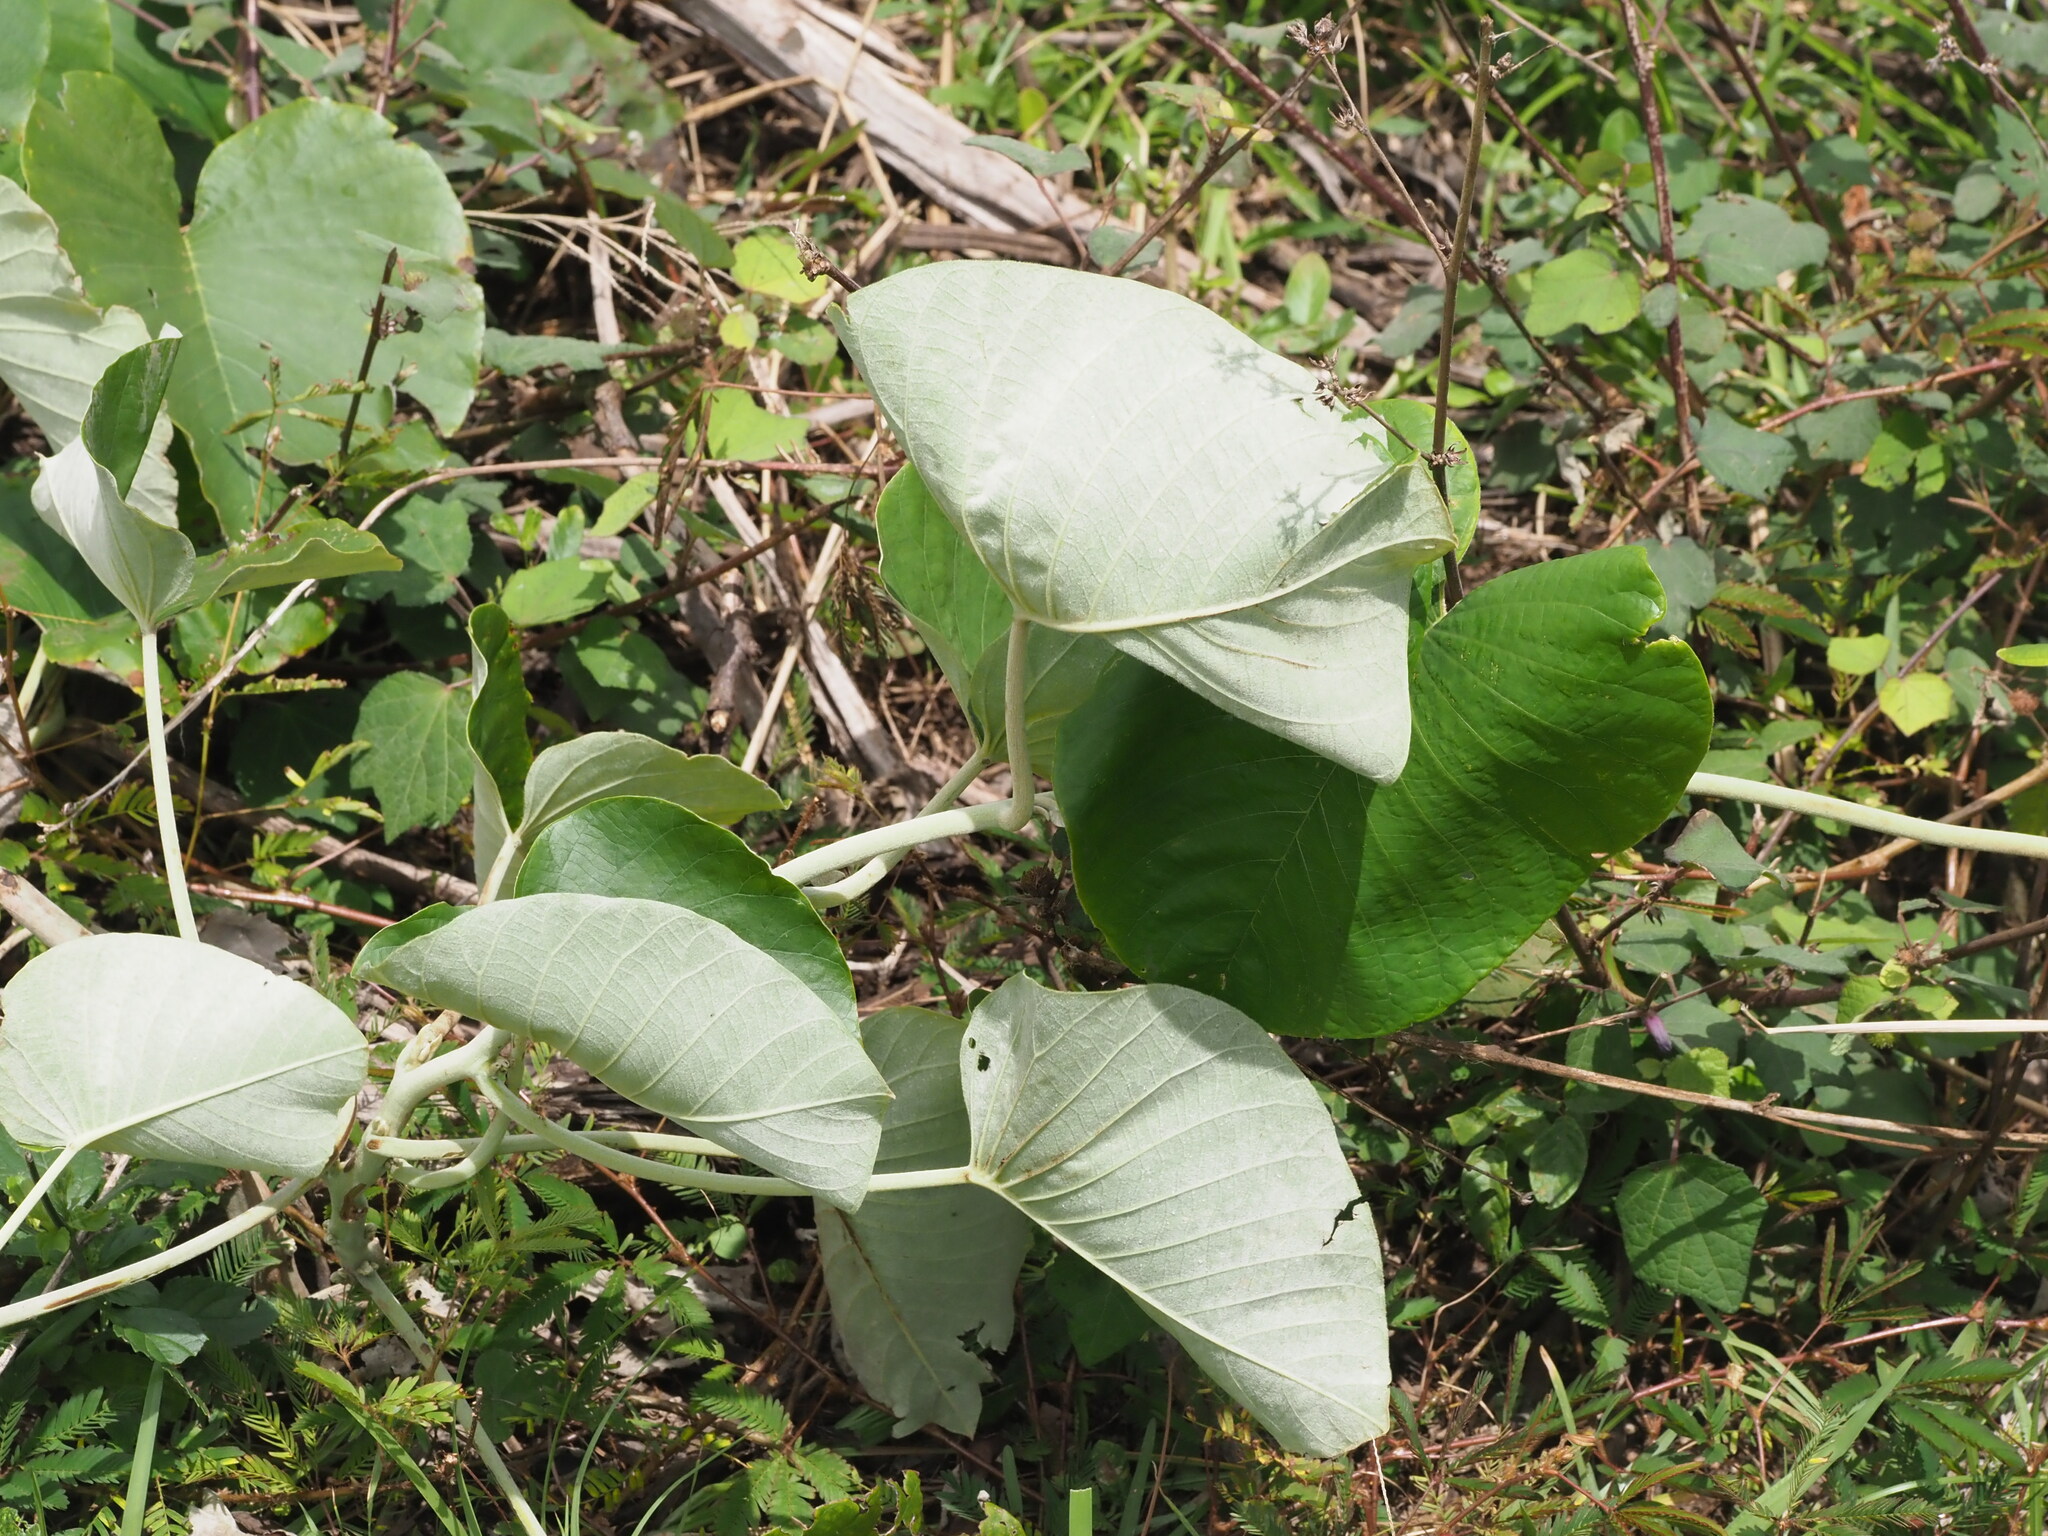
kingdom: Plantae
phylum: Tracheophyta
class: Magnoliopsida
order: Solanales
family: Convolvulaceae
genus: Argyreia
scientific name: Argyreia nervosa
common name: Elephant creeper
